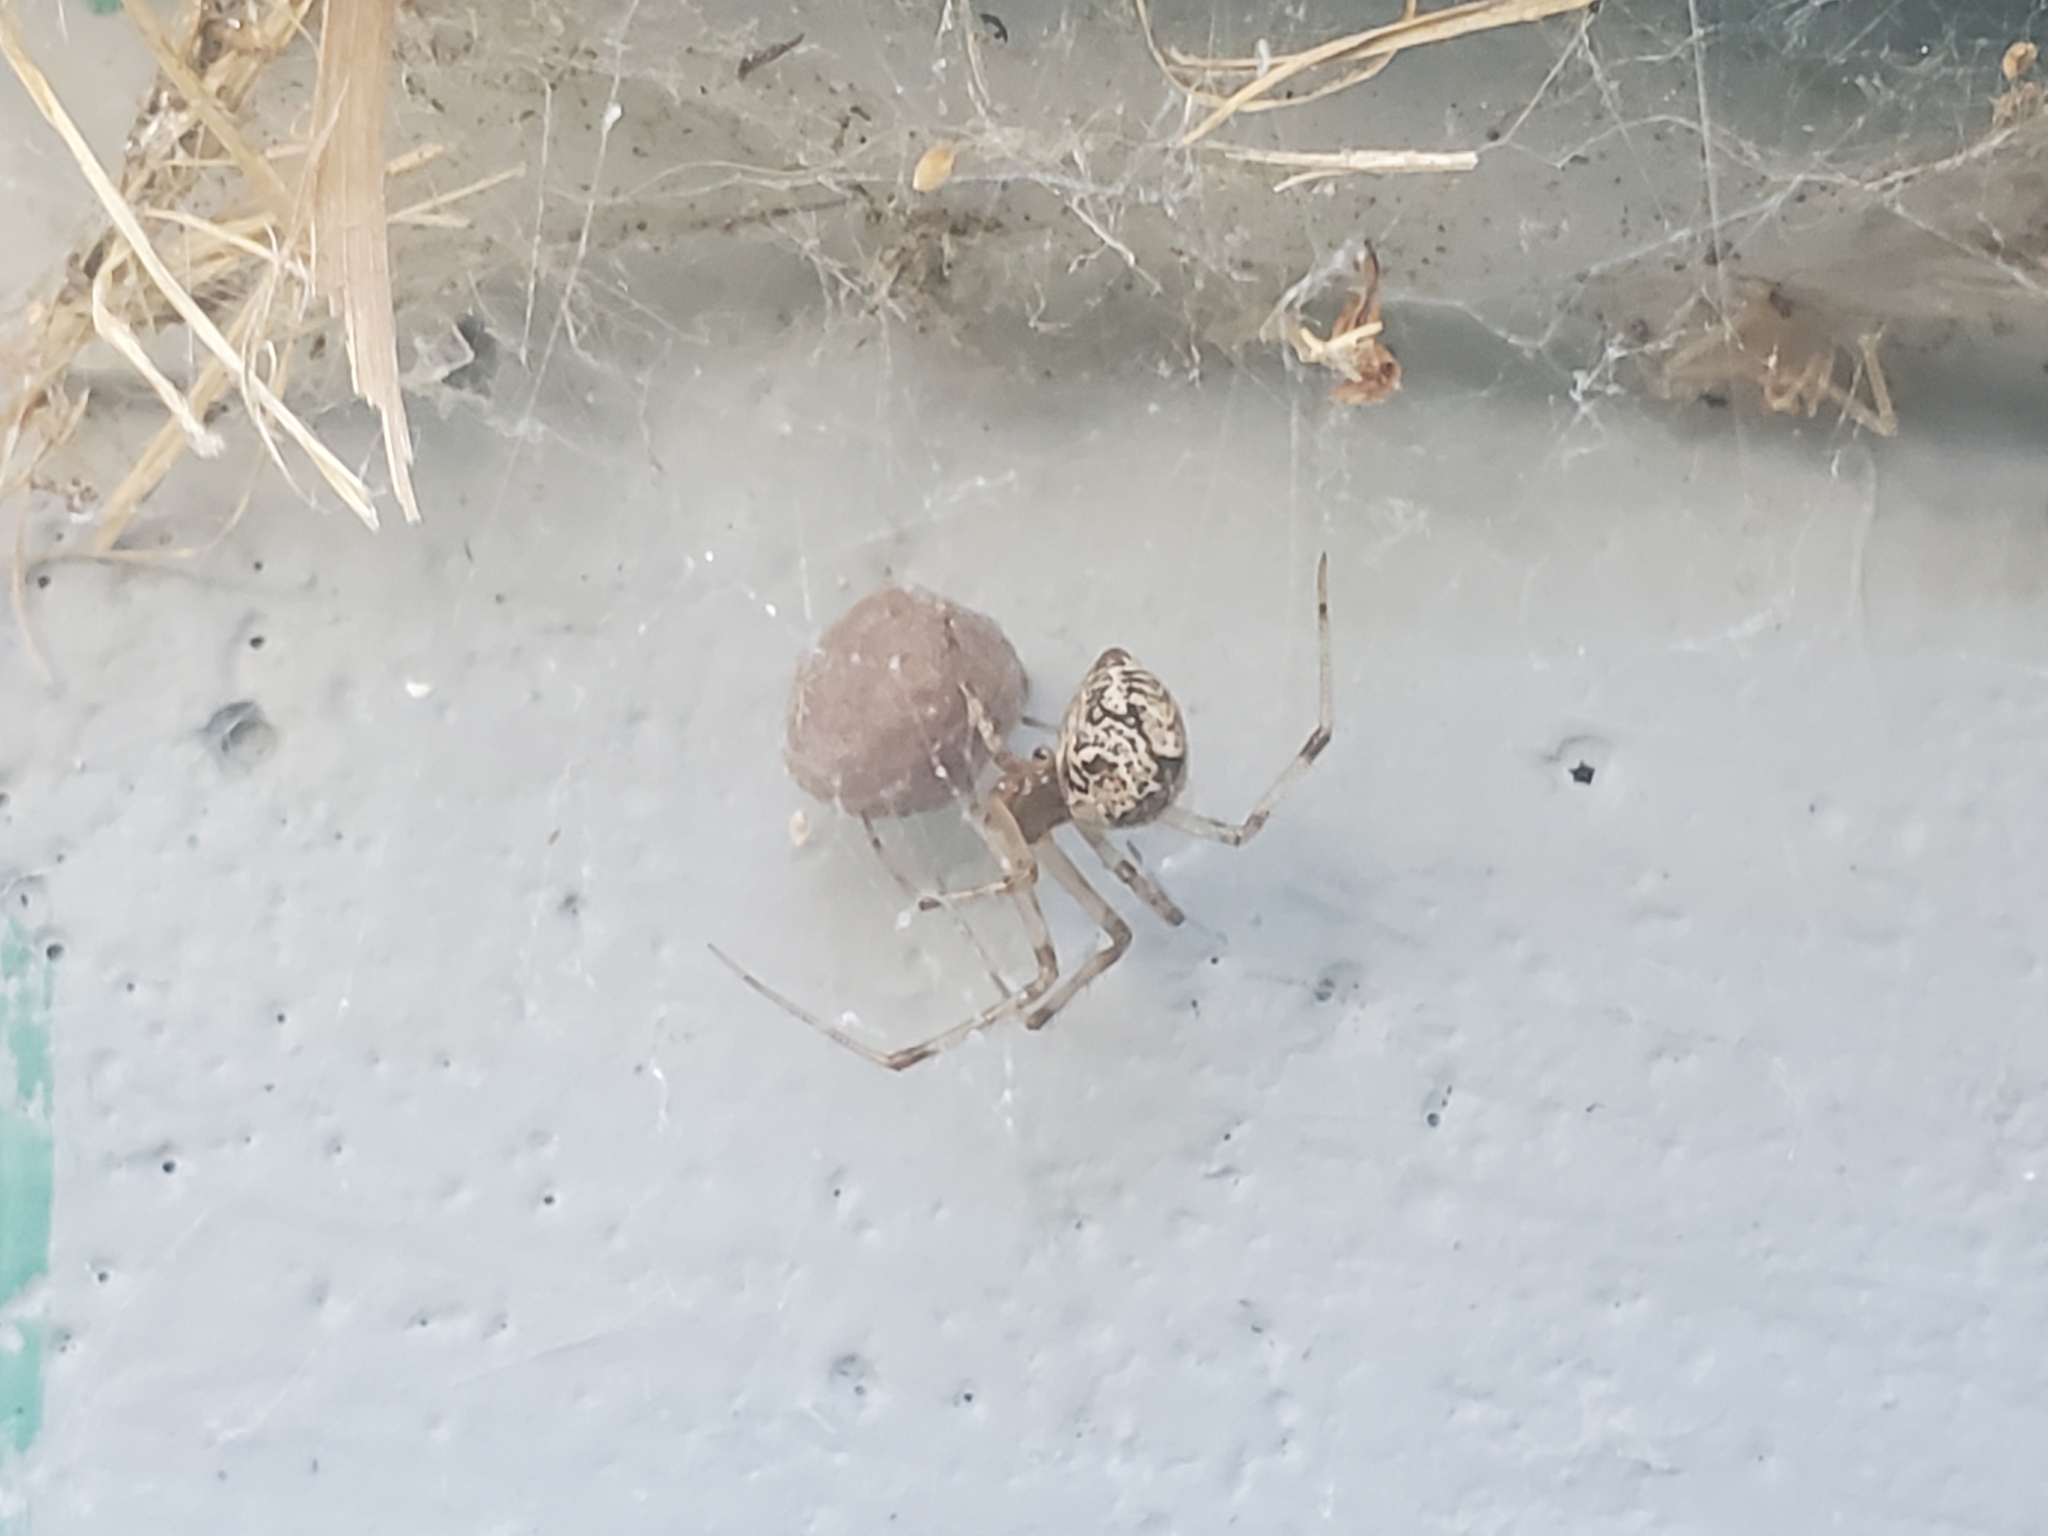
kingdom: Animalia
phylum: Arthropoda
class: Arachnida
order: Araneae
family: Theridiidae
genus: Parasteatoda
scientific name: Parasteatoda tepidariorum
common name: Common house spider
